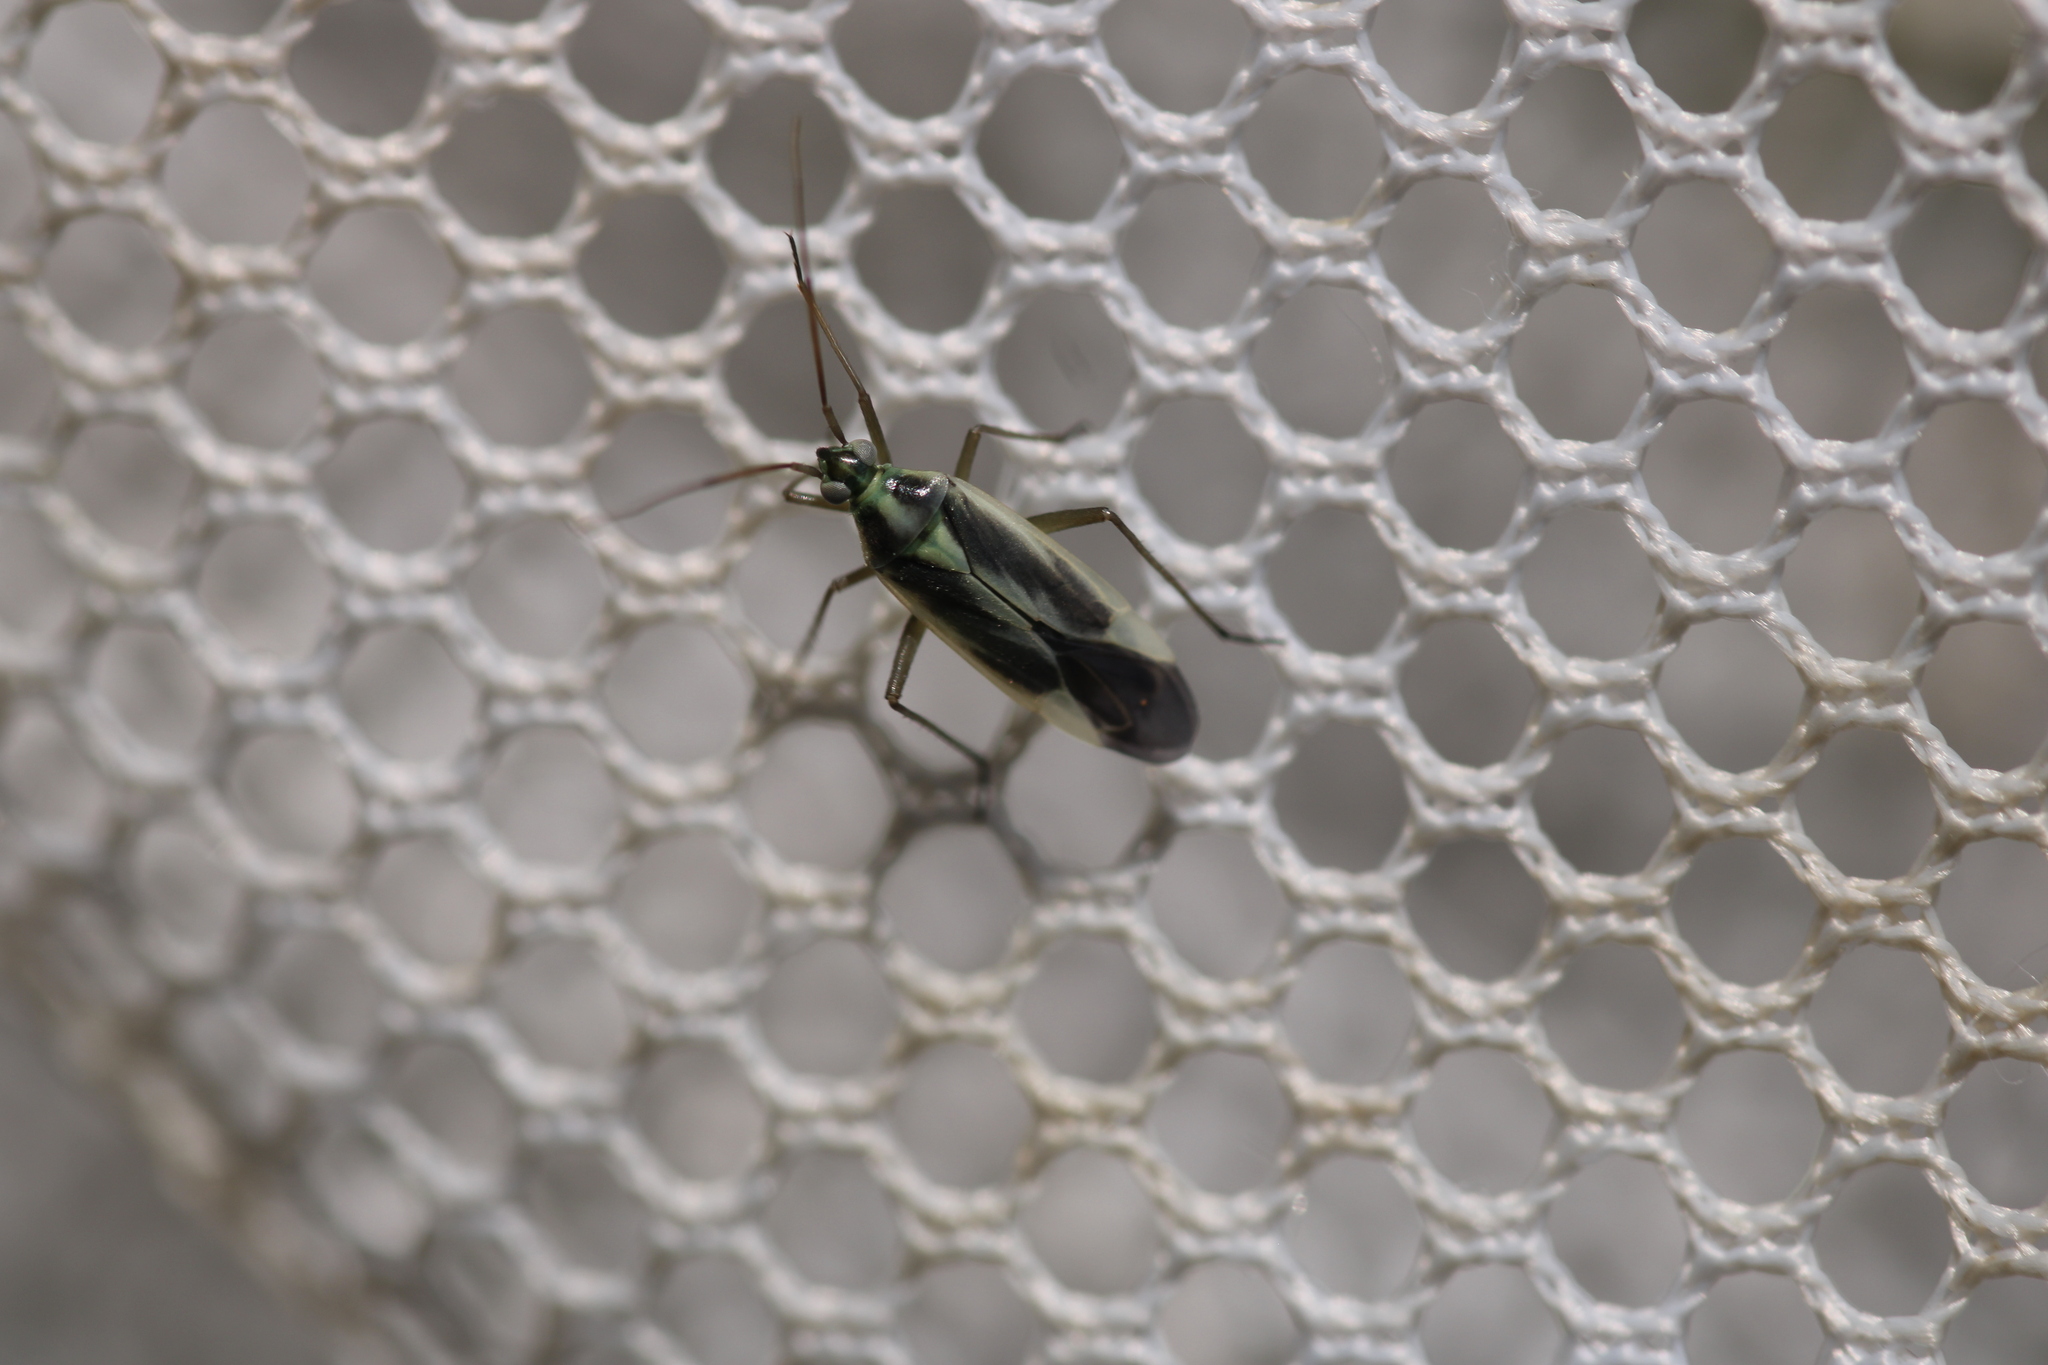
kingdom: Animalia
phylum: Arthropoda
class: Insecta
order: Hemiptera
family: Miridae
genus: Stenotus
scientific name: Stenotus binotatus
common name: Plant bug
